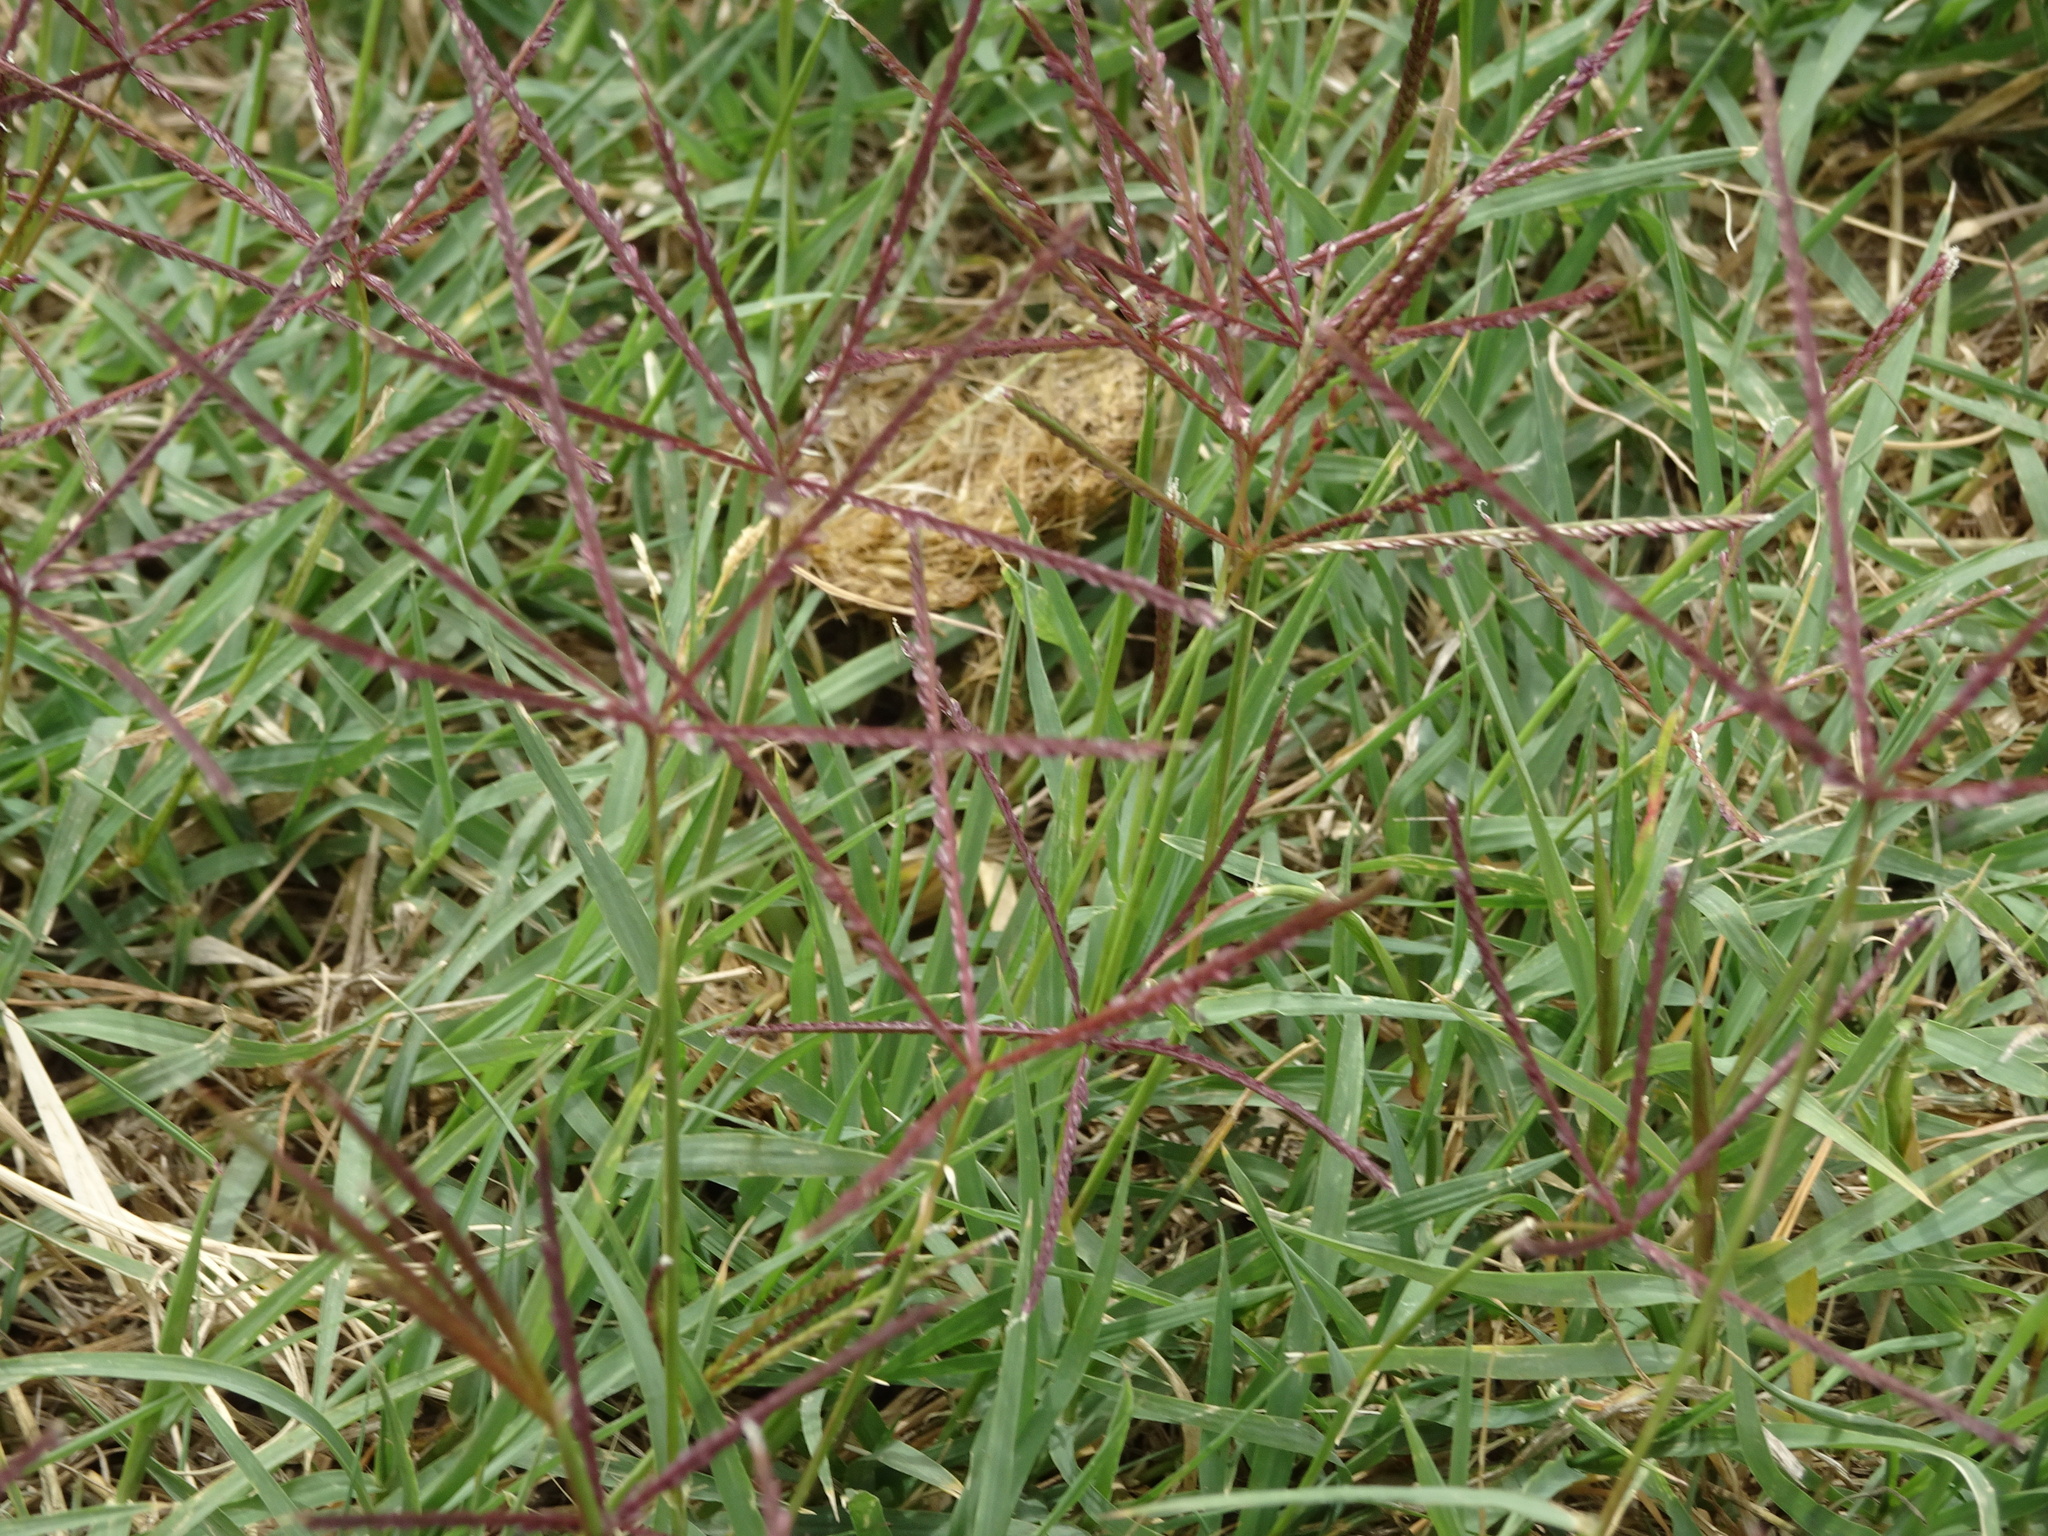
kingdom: Plantae
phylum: Tracheophyta
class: Liliopsida
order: Poales
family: Poaceae
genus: Cynodon
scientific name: Cynodon dactylon
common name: Bermuda grass
